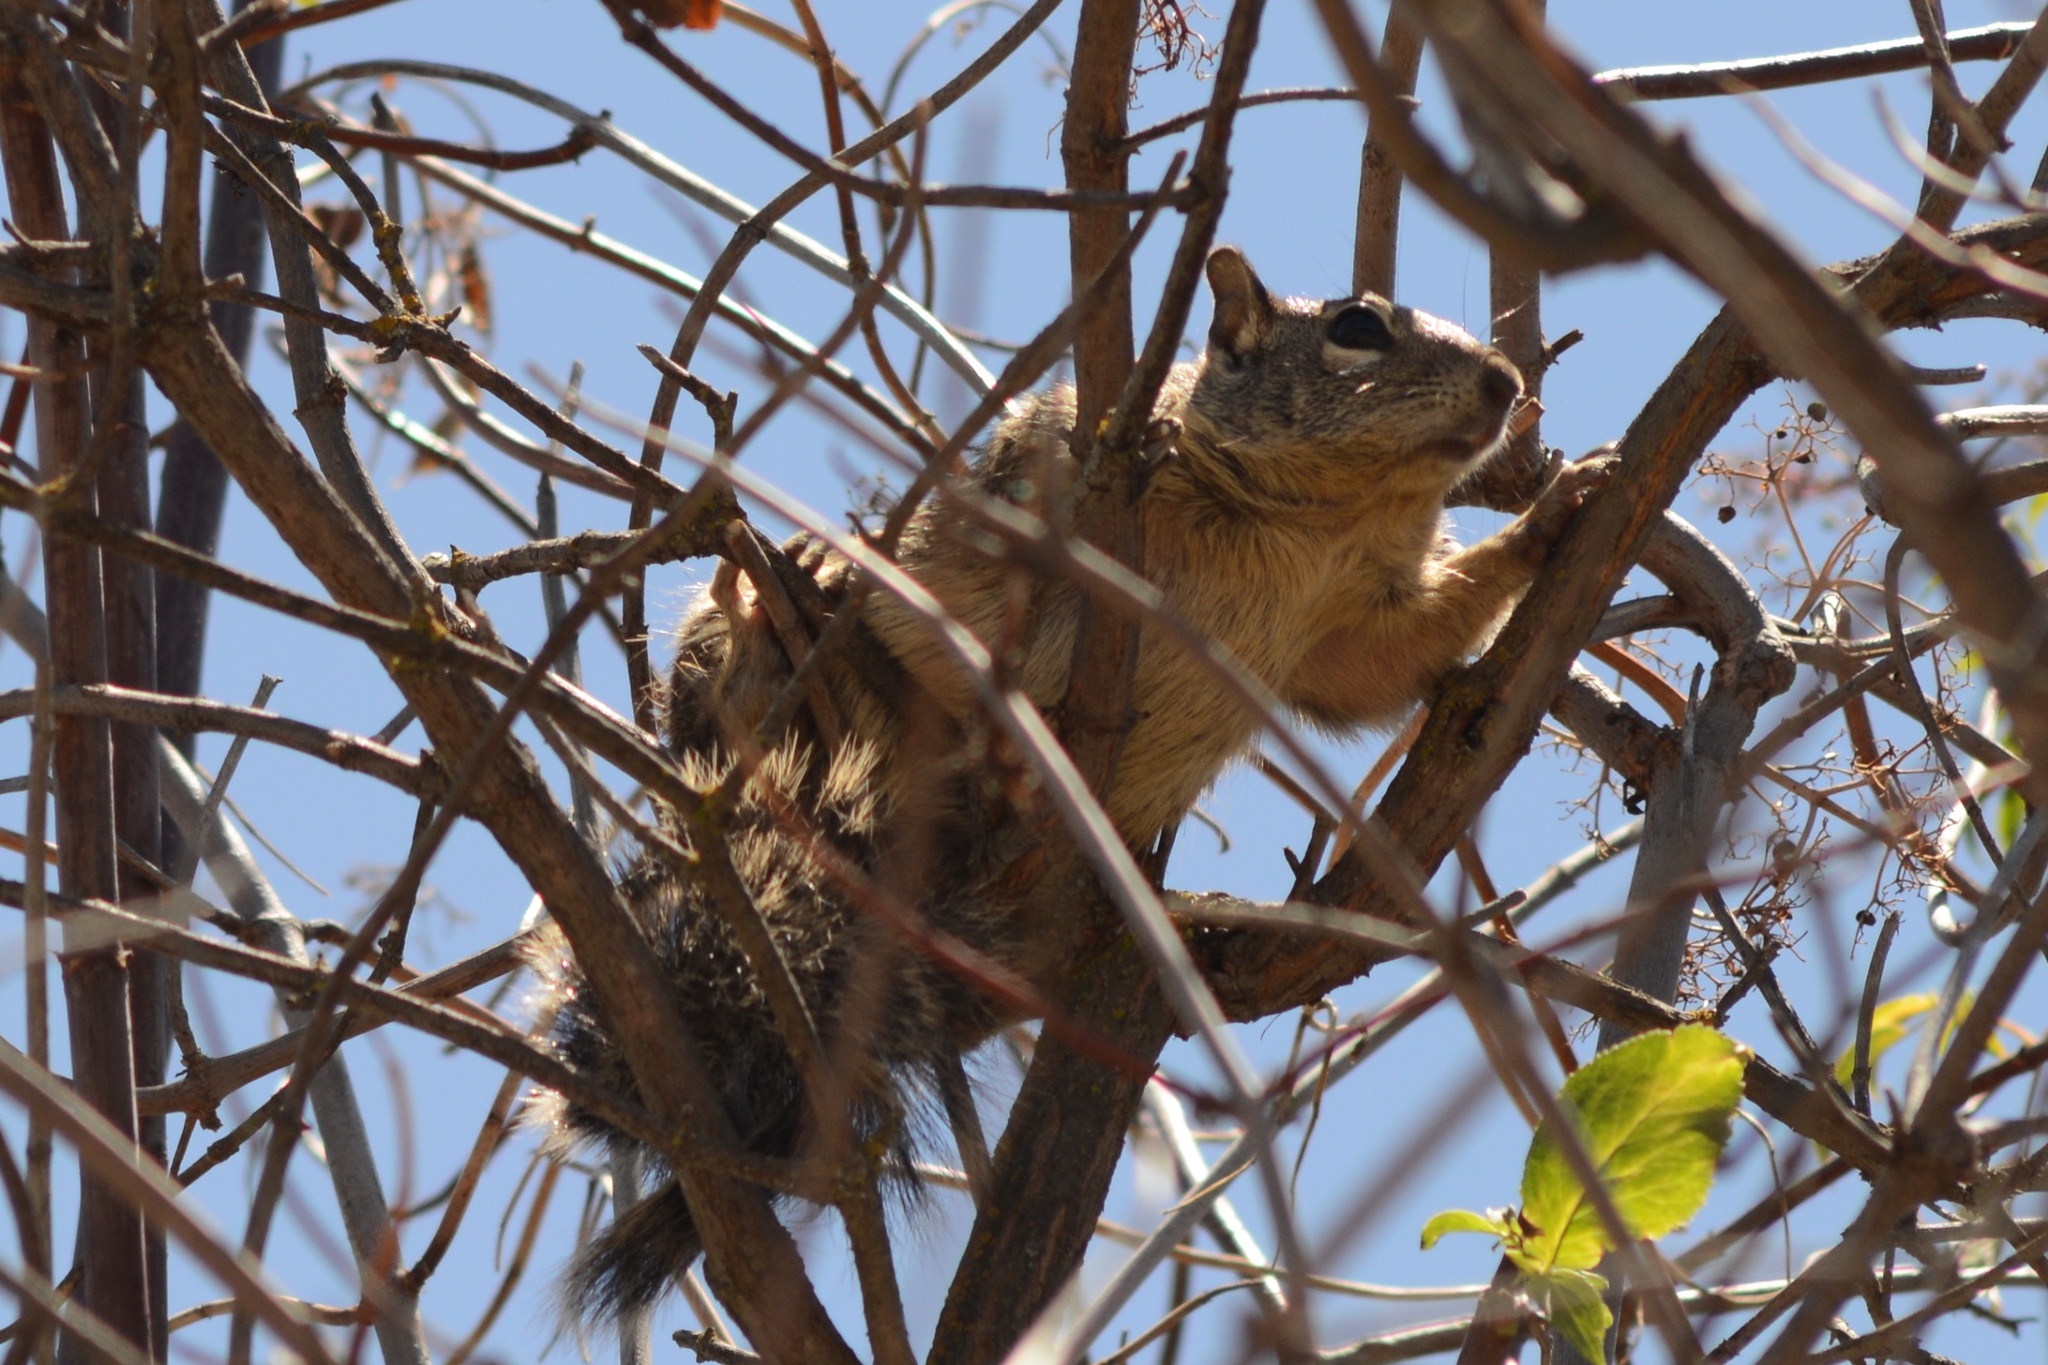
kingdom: Animalia
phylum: Chordata
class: Mammalia
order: Rodentia
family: Sciuridae
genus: Otospermophilus
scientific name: Otospermophilus beecheyi
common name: California ground squirrel
